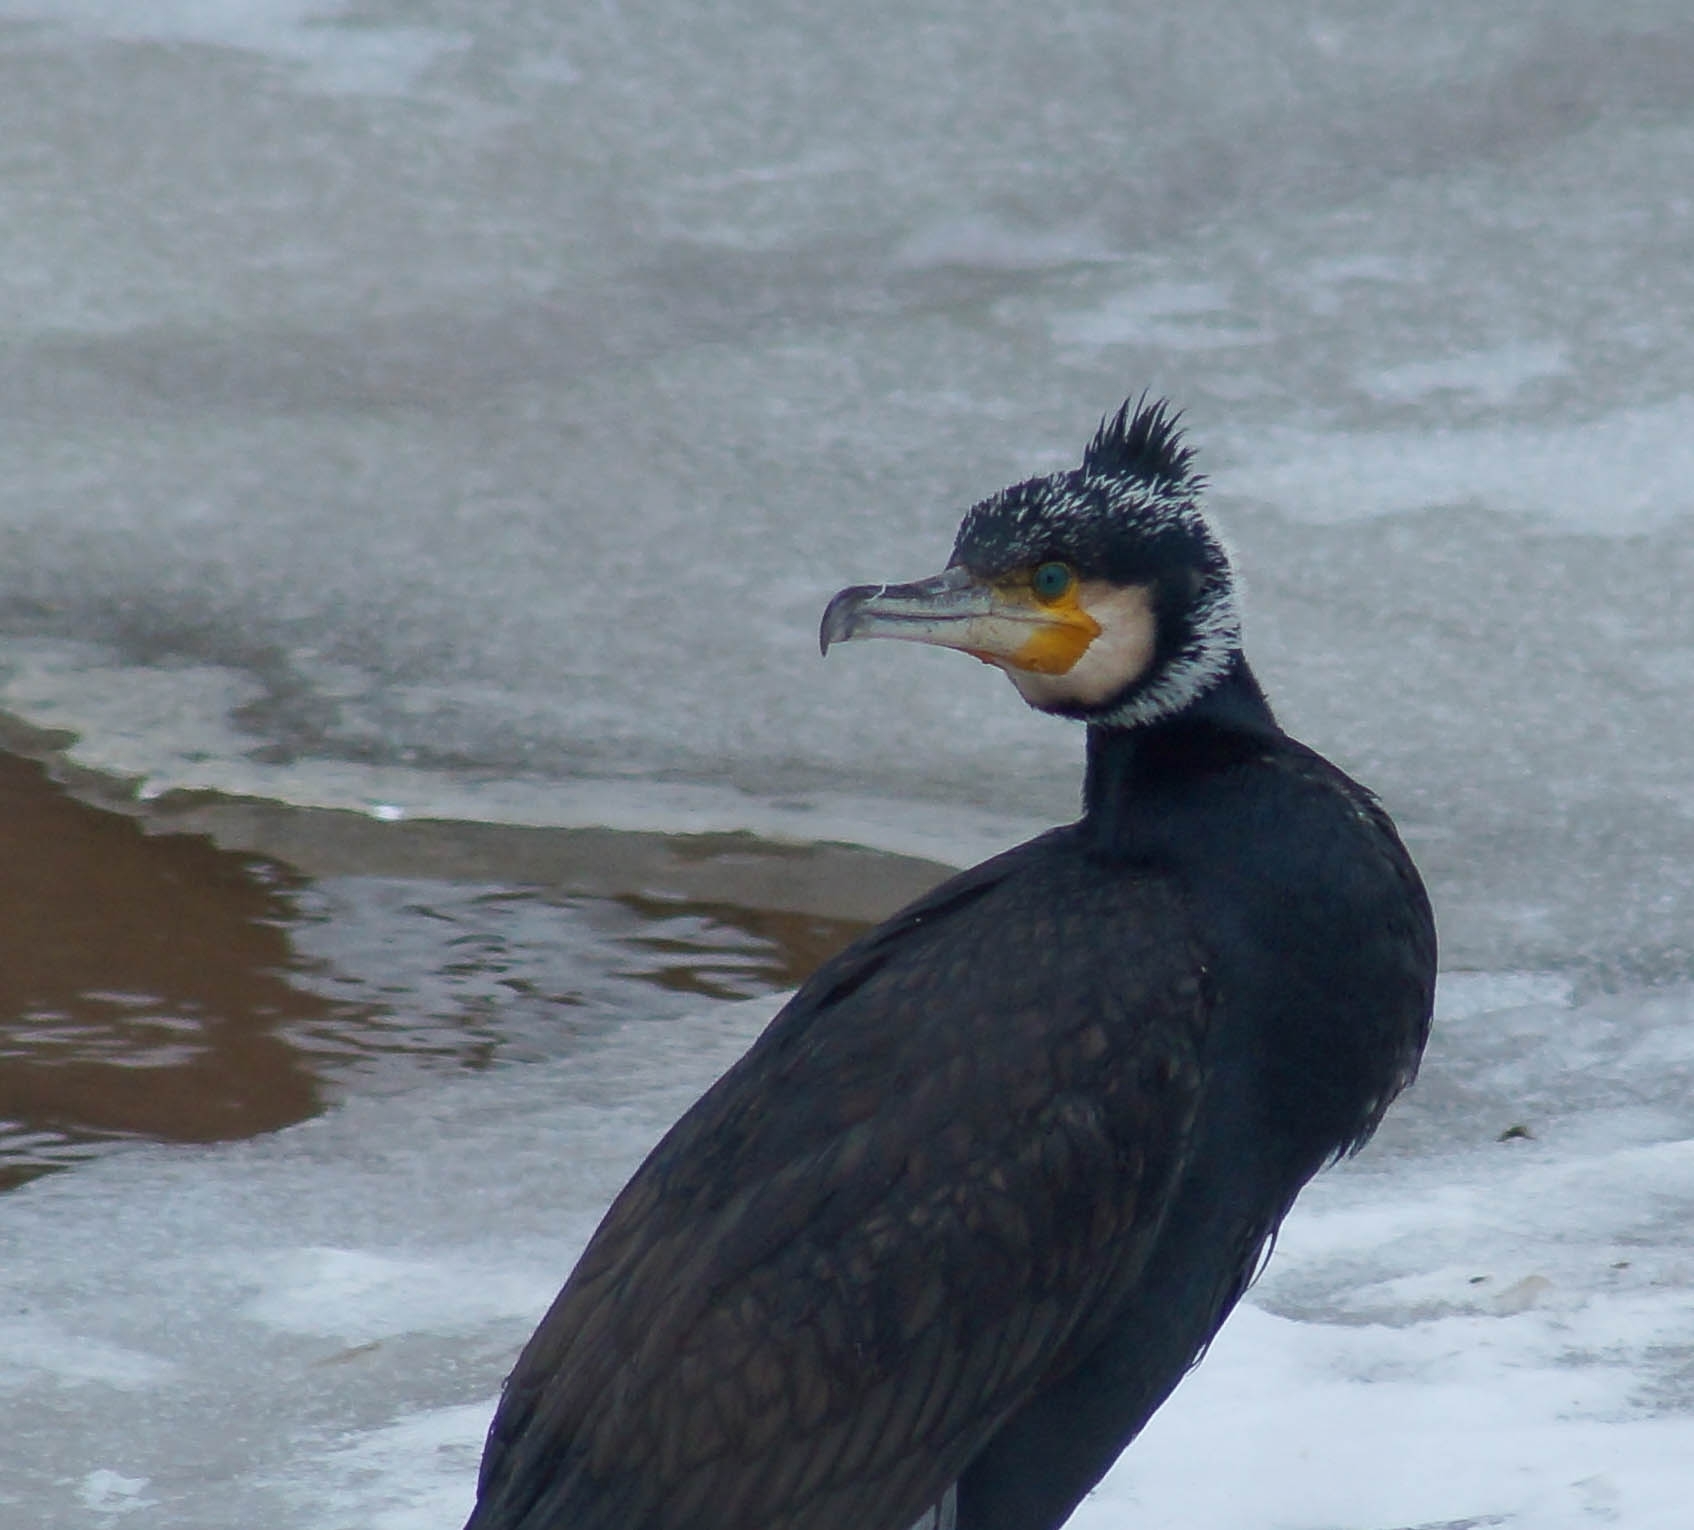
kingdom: Animalia
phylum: Chordata
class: Aves
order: Suliformes
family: Phalacrocoracidae
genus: Phalacrocorax
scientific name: Phalacrocorax carbo
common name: Great cormorant
